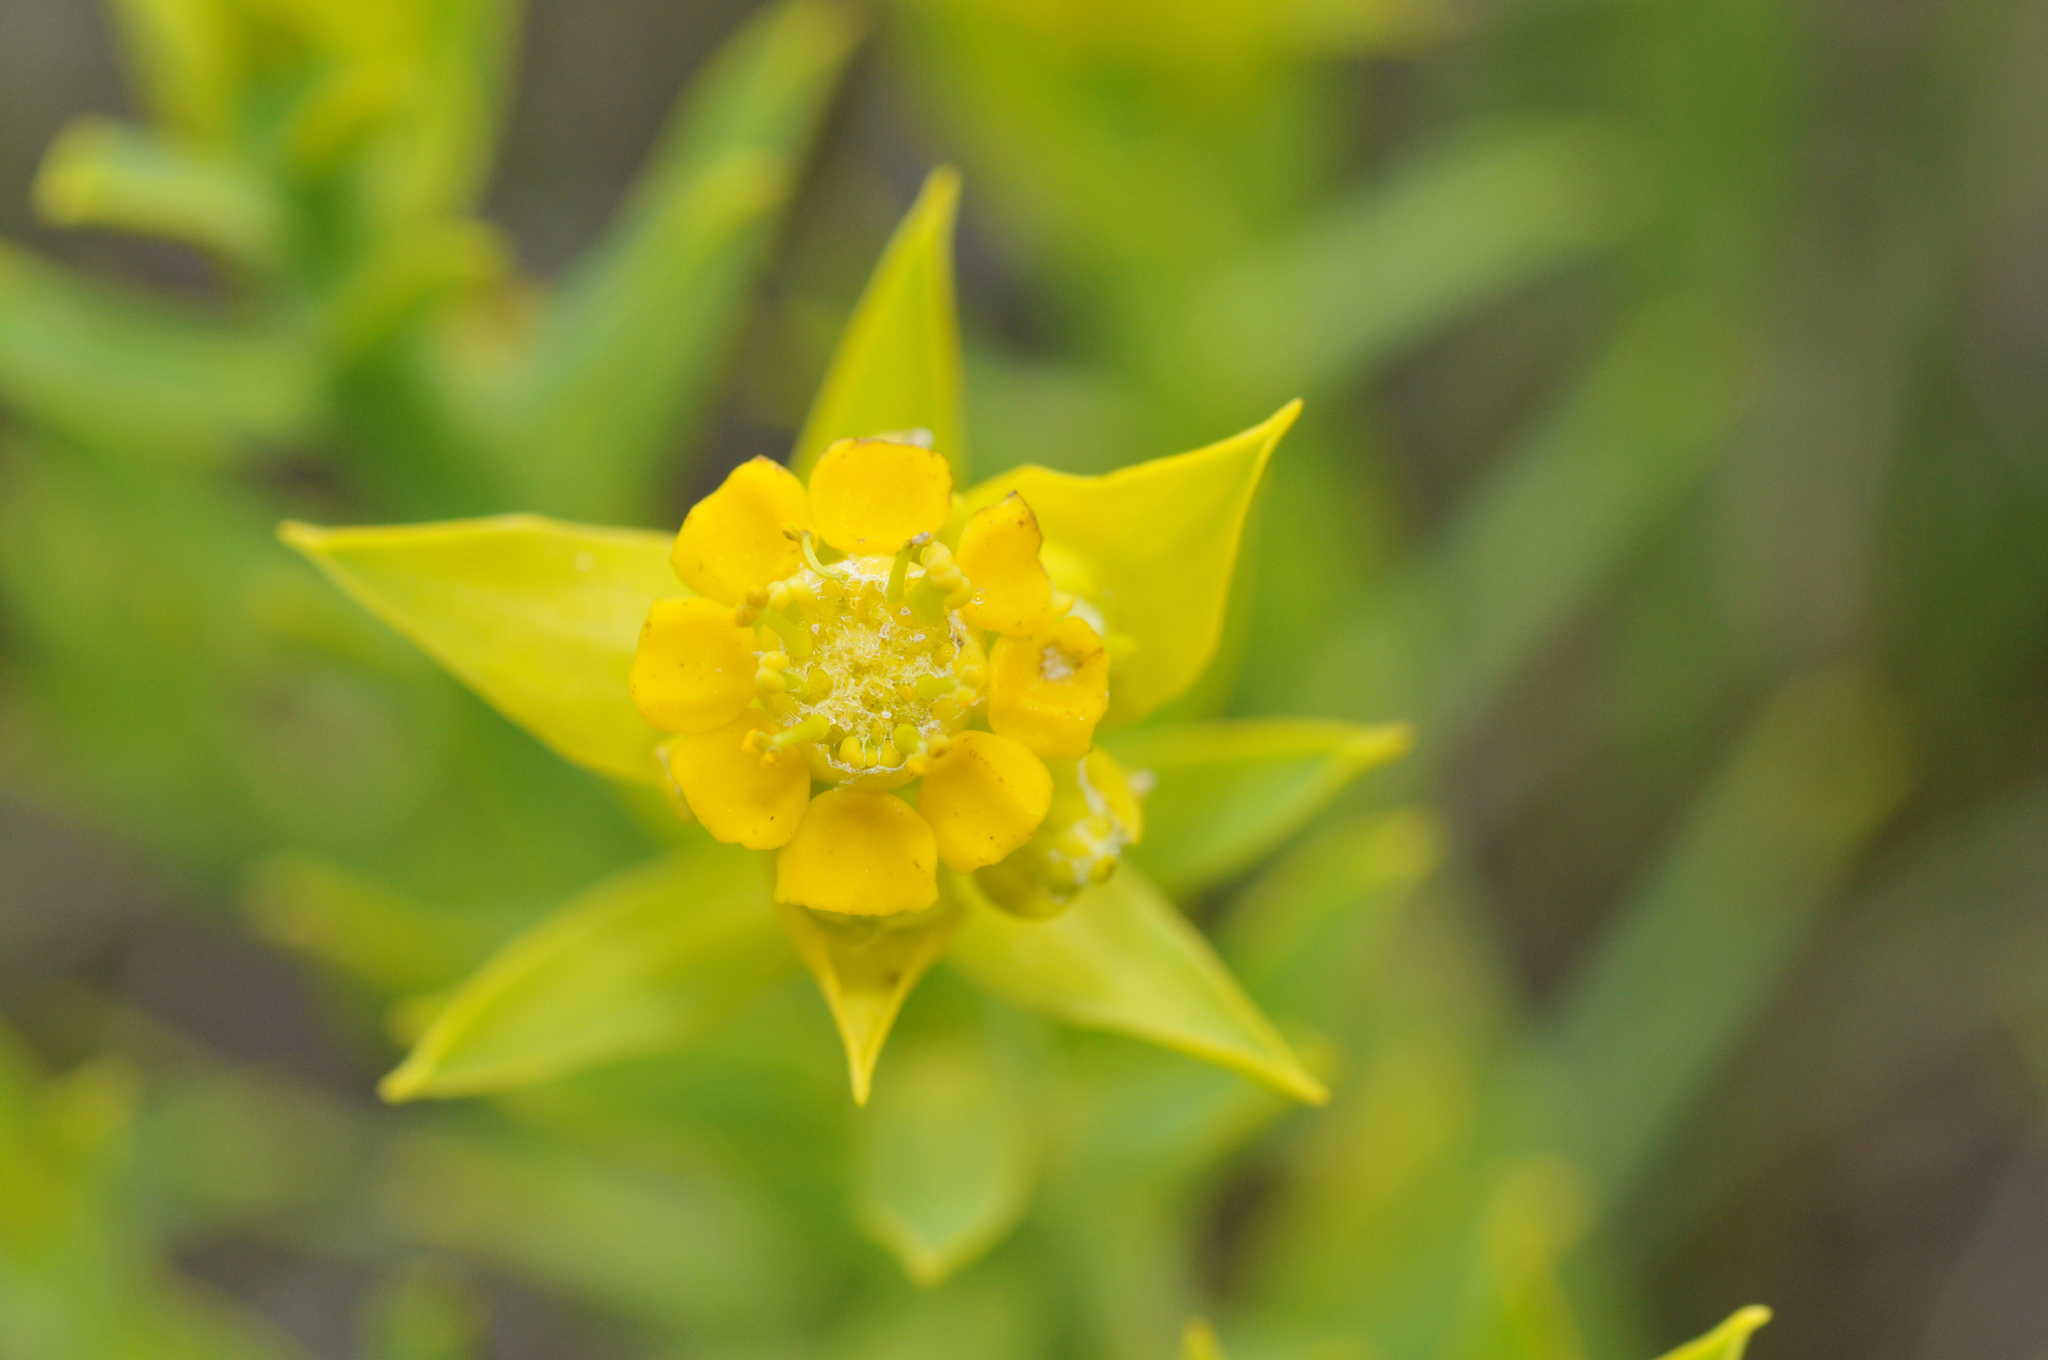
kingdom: Plantae
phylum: Tracheophyta
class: Magnoliopsida
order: Malpighiales
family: Euphorbiaceae
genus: Euphorbia
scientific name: Euphorbia mauritanica
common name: Jackal's-food
